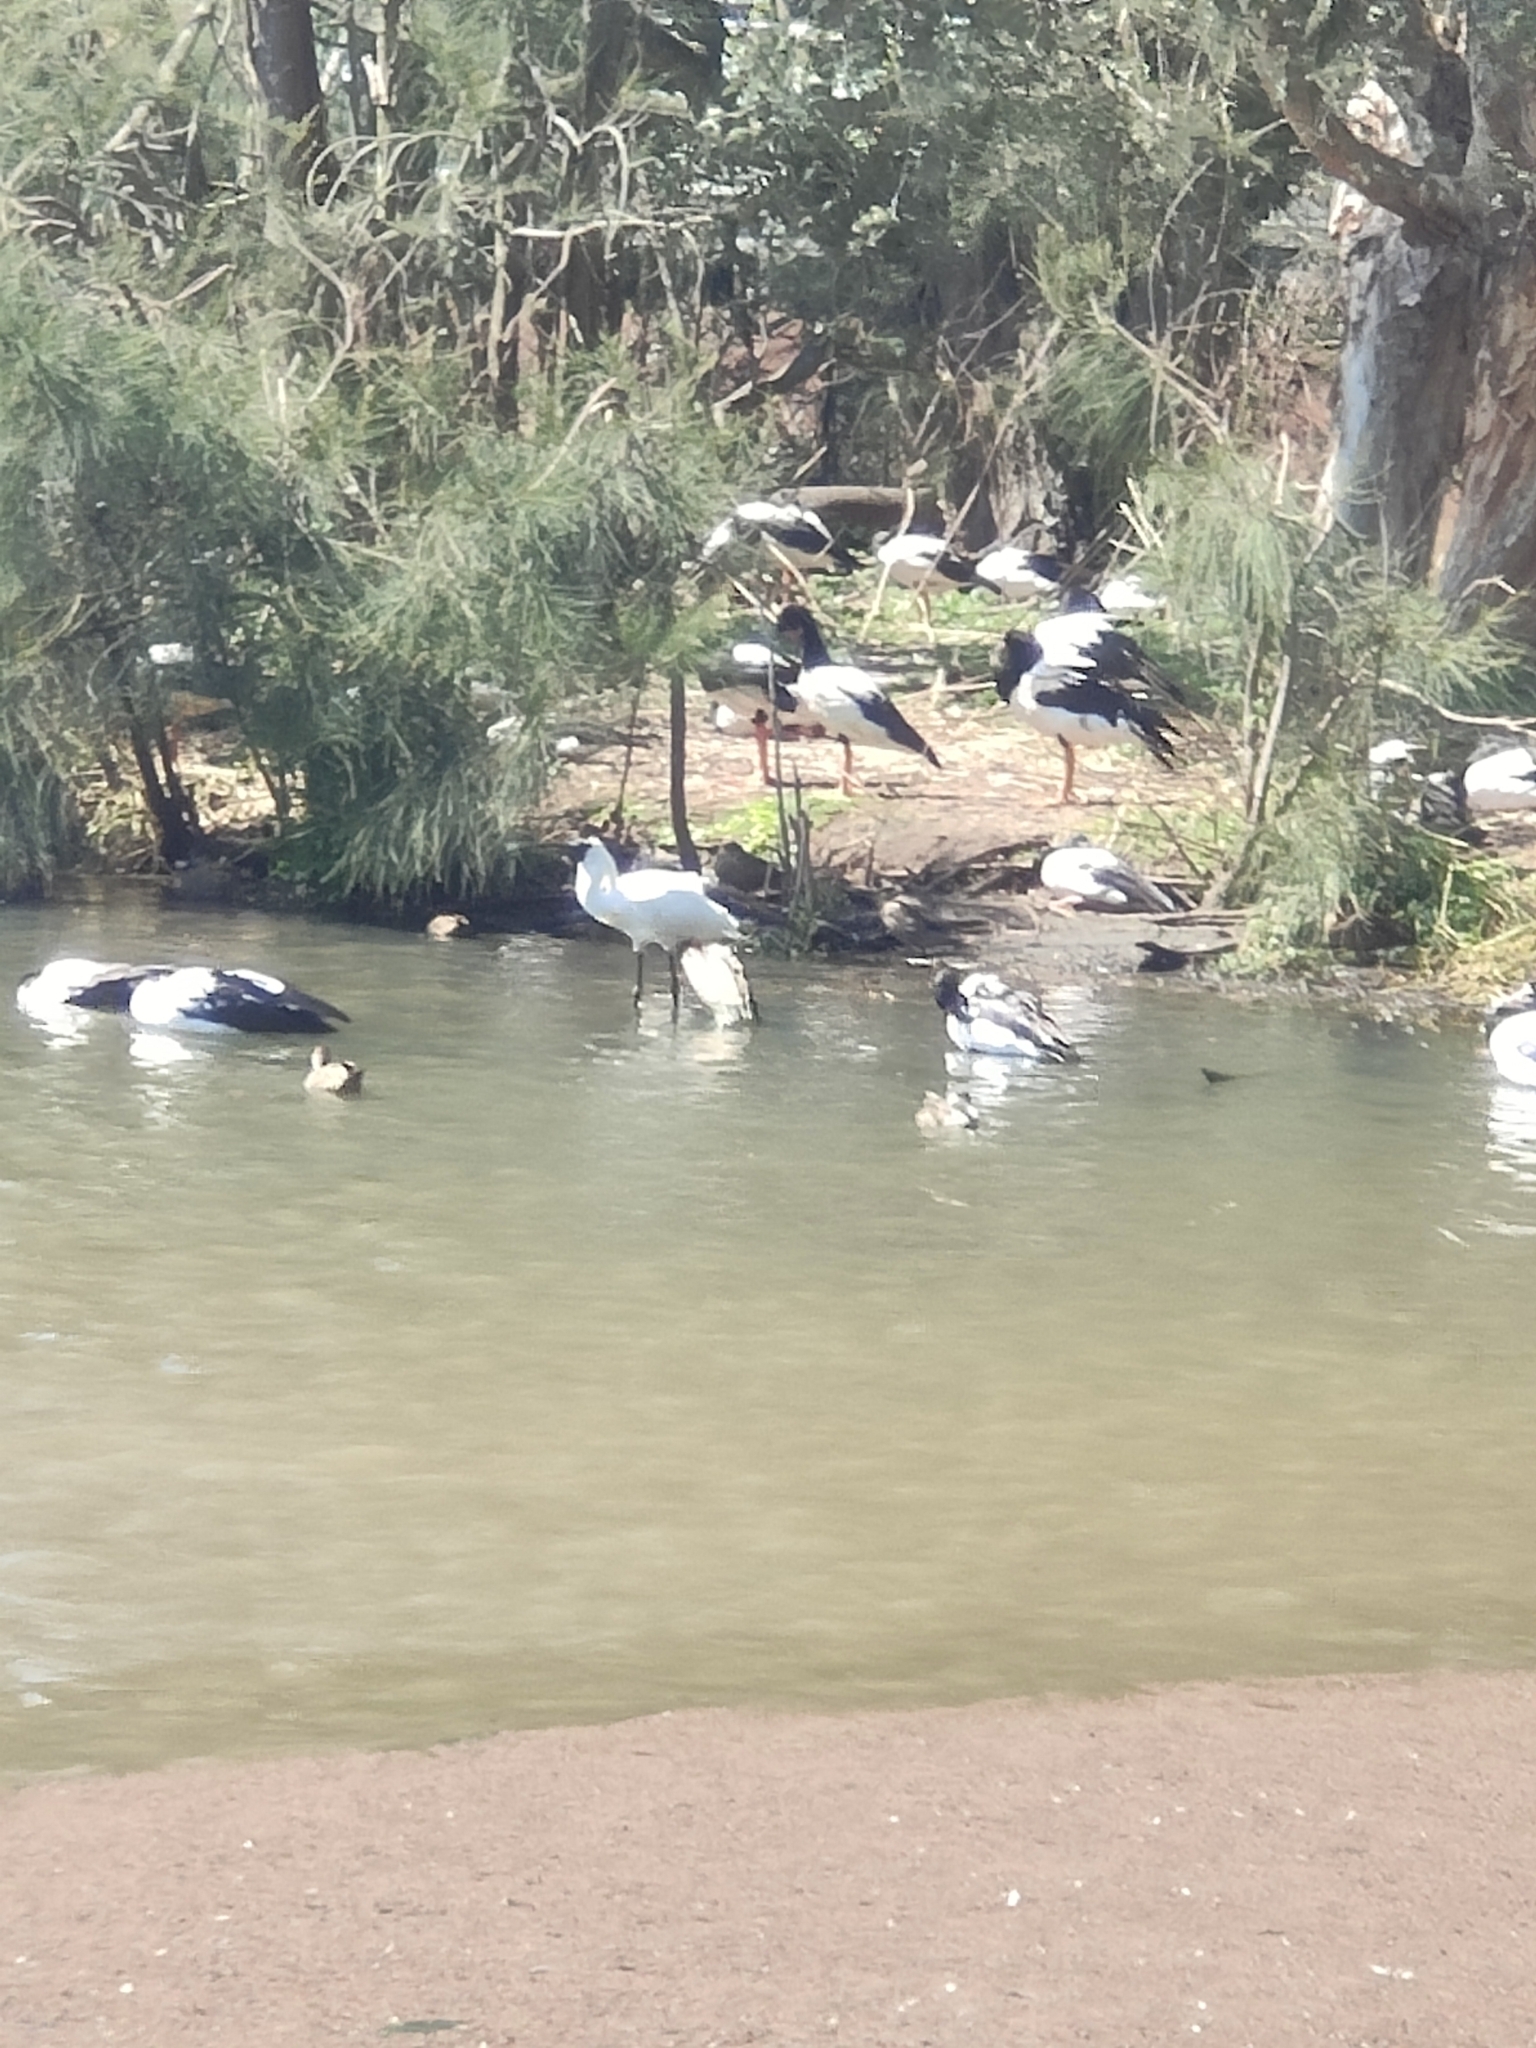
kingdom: Animalia
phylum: Chordata
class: Aves
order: Anseriformes
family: Anseranatidae
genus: Anseranas
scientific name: Anseranas semipalmata
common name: Magpie goose
